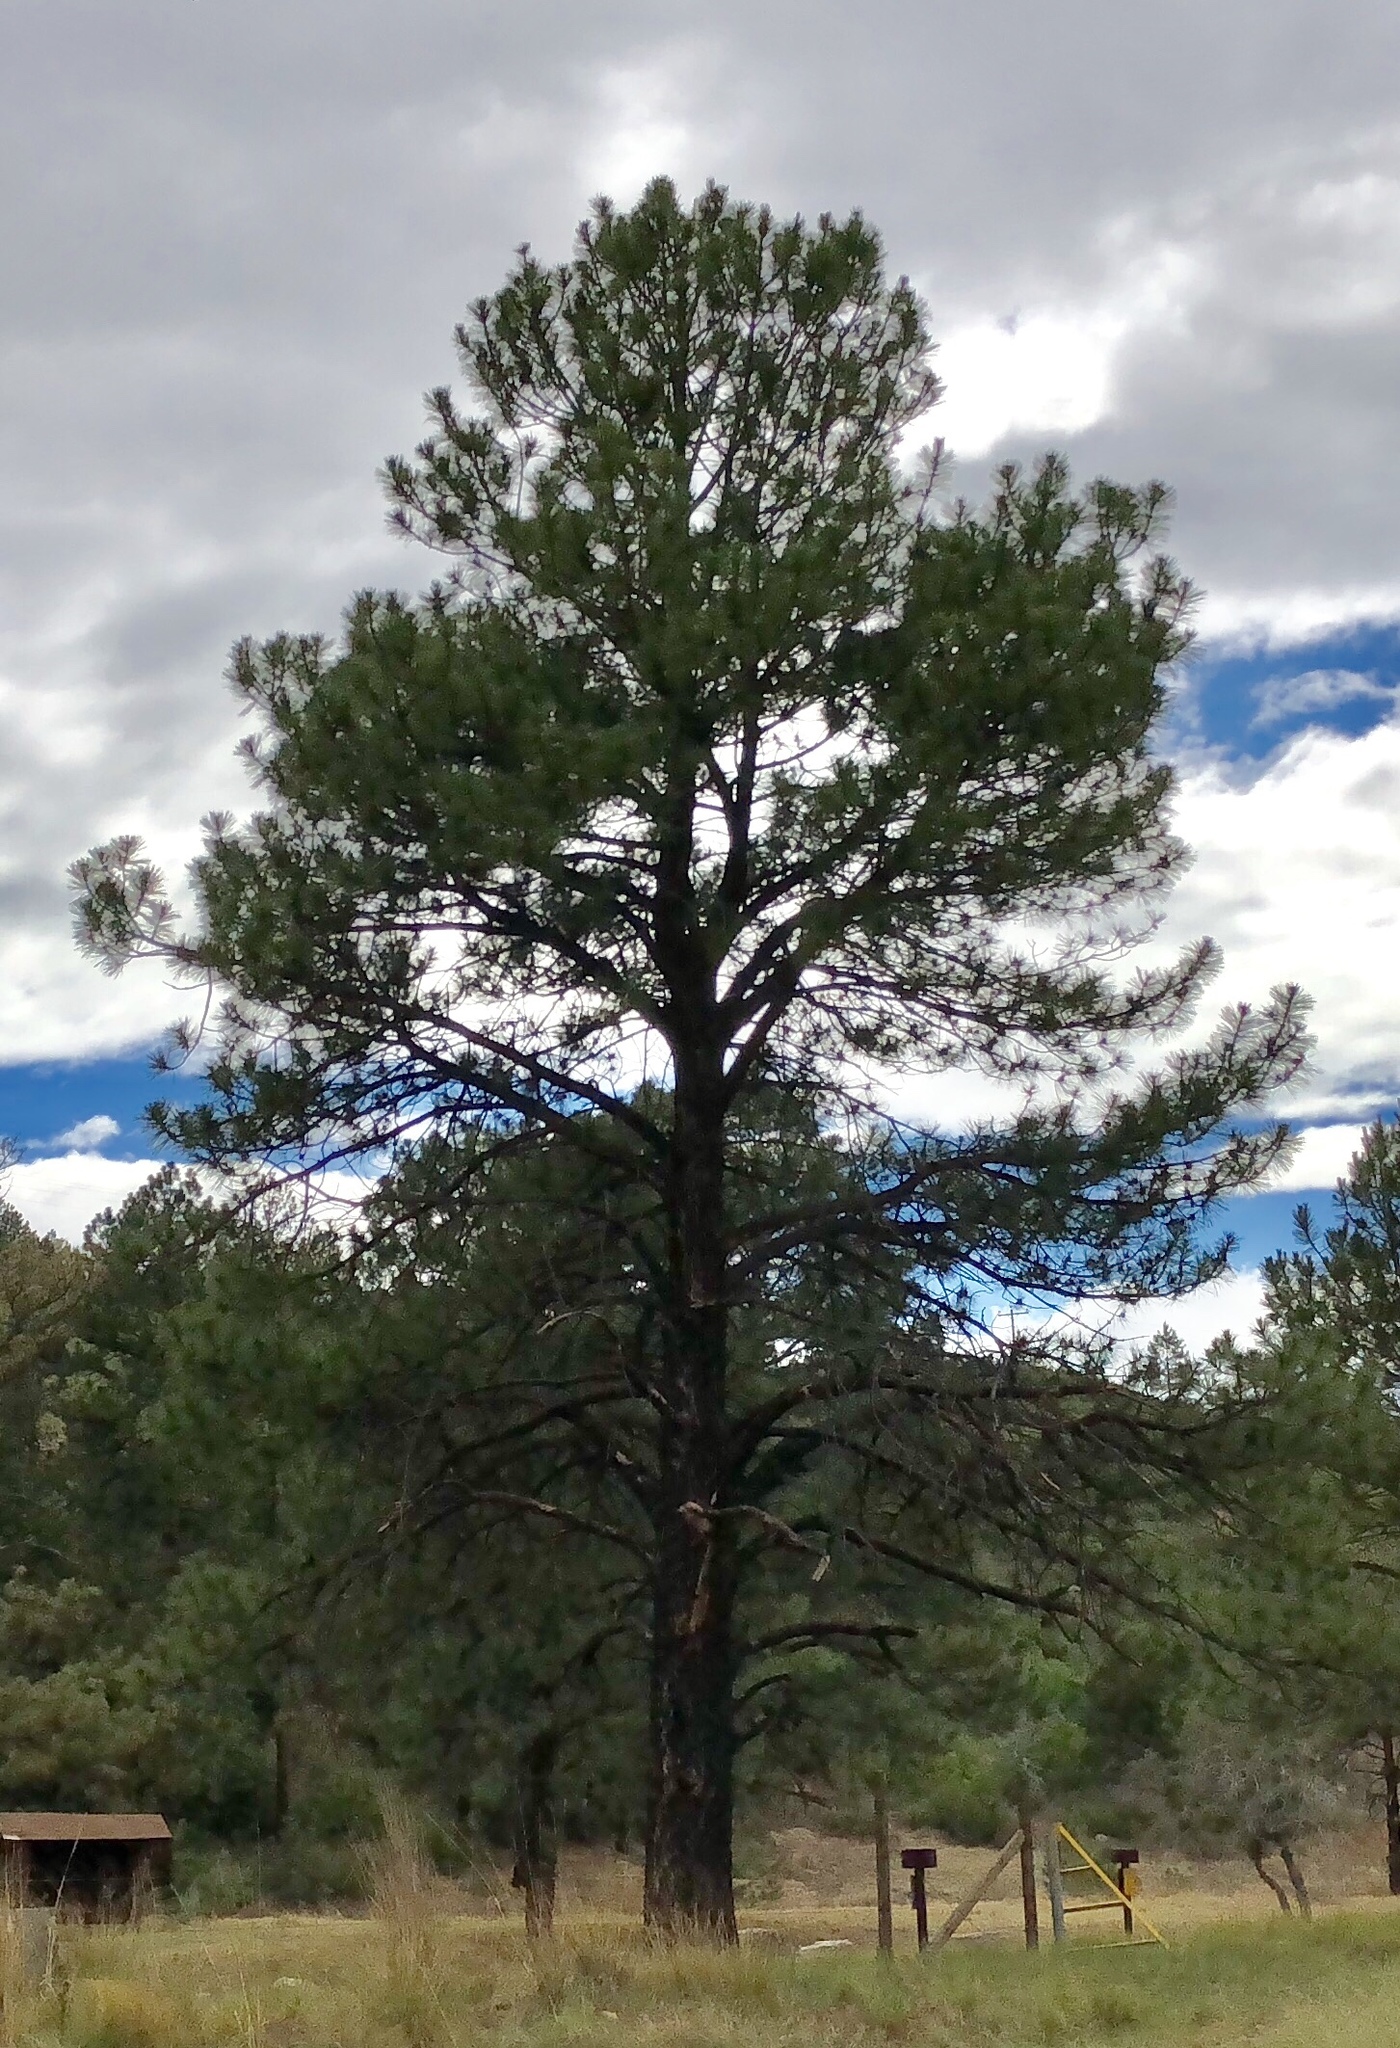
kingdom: Plantae
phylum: Tracheophyta
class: Pinopsida
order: Pinales
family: Pinaceae
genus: Pinus
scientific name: Pinus ponderosa
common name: Western yellow-pine
